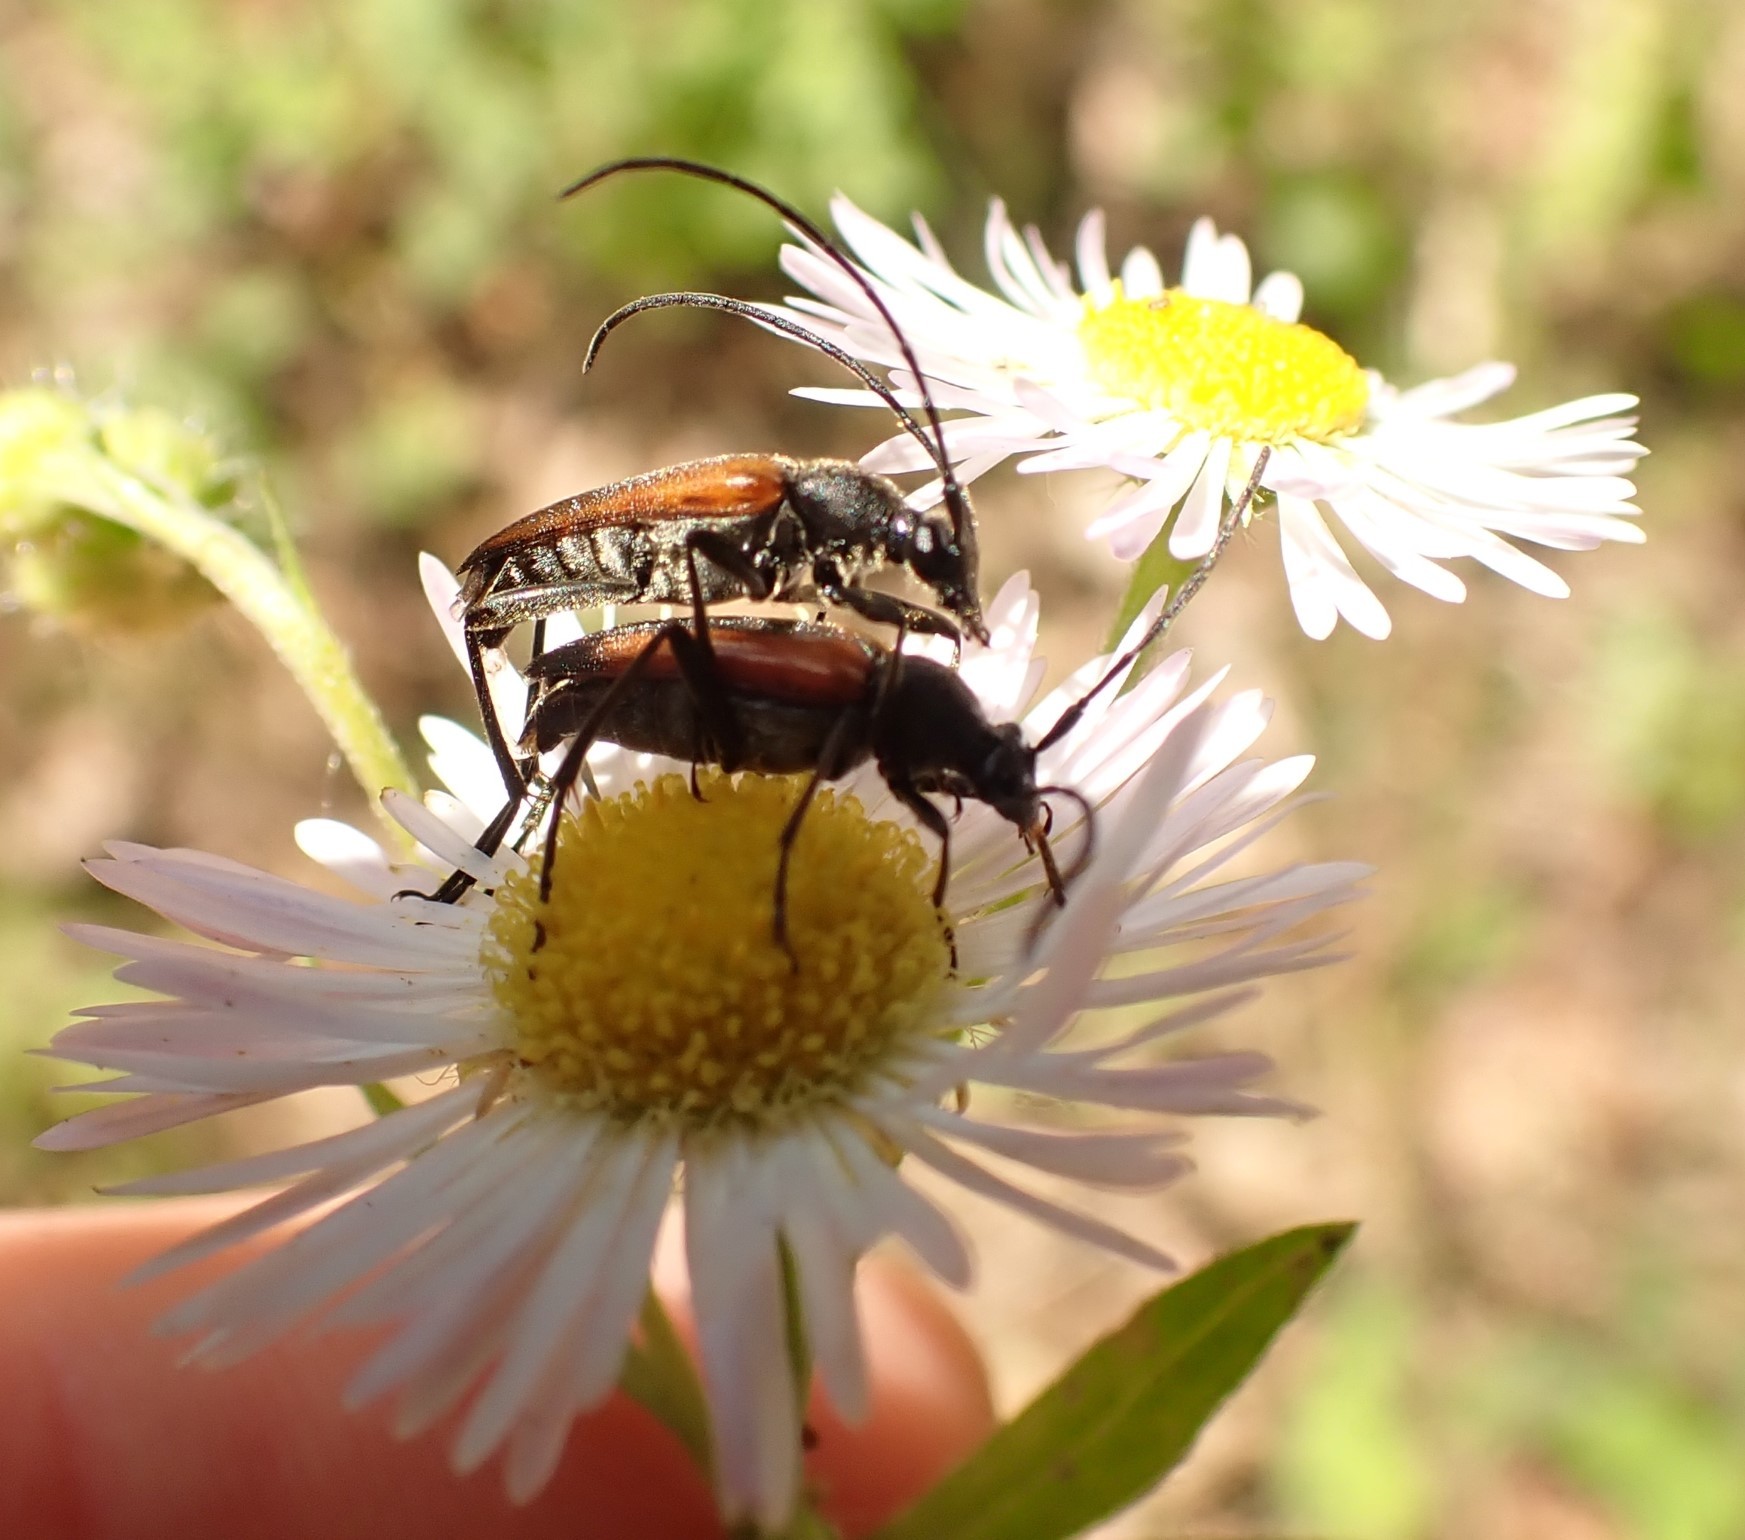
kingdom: Animalia
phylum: Arthropoda
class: Insecta
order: Coleoptera
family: Cerambycidae
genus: Stenurella
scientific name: Stenurella melanura
